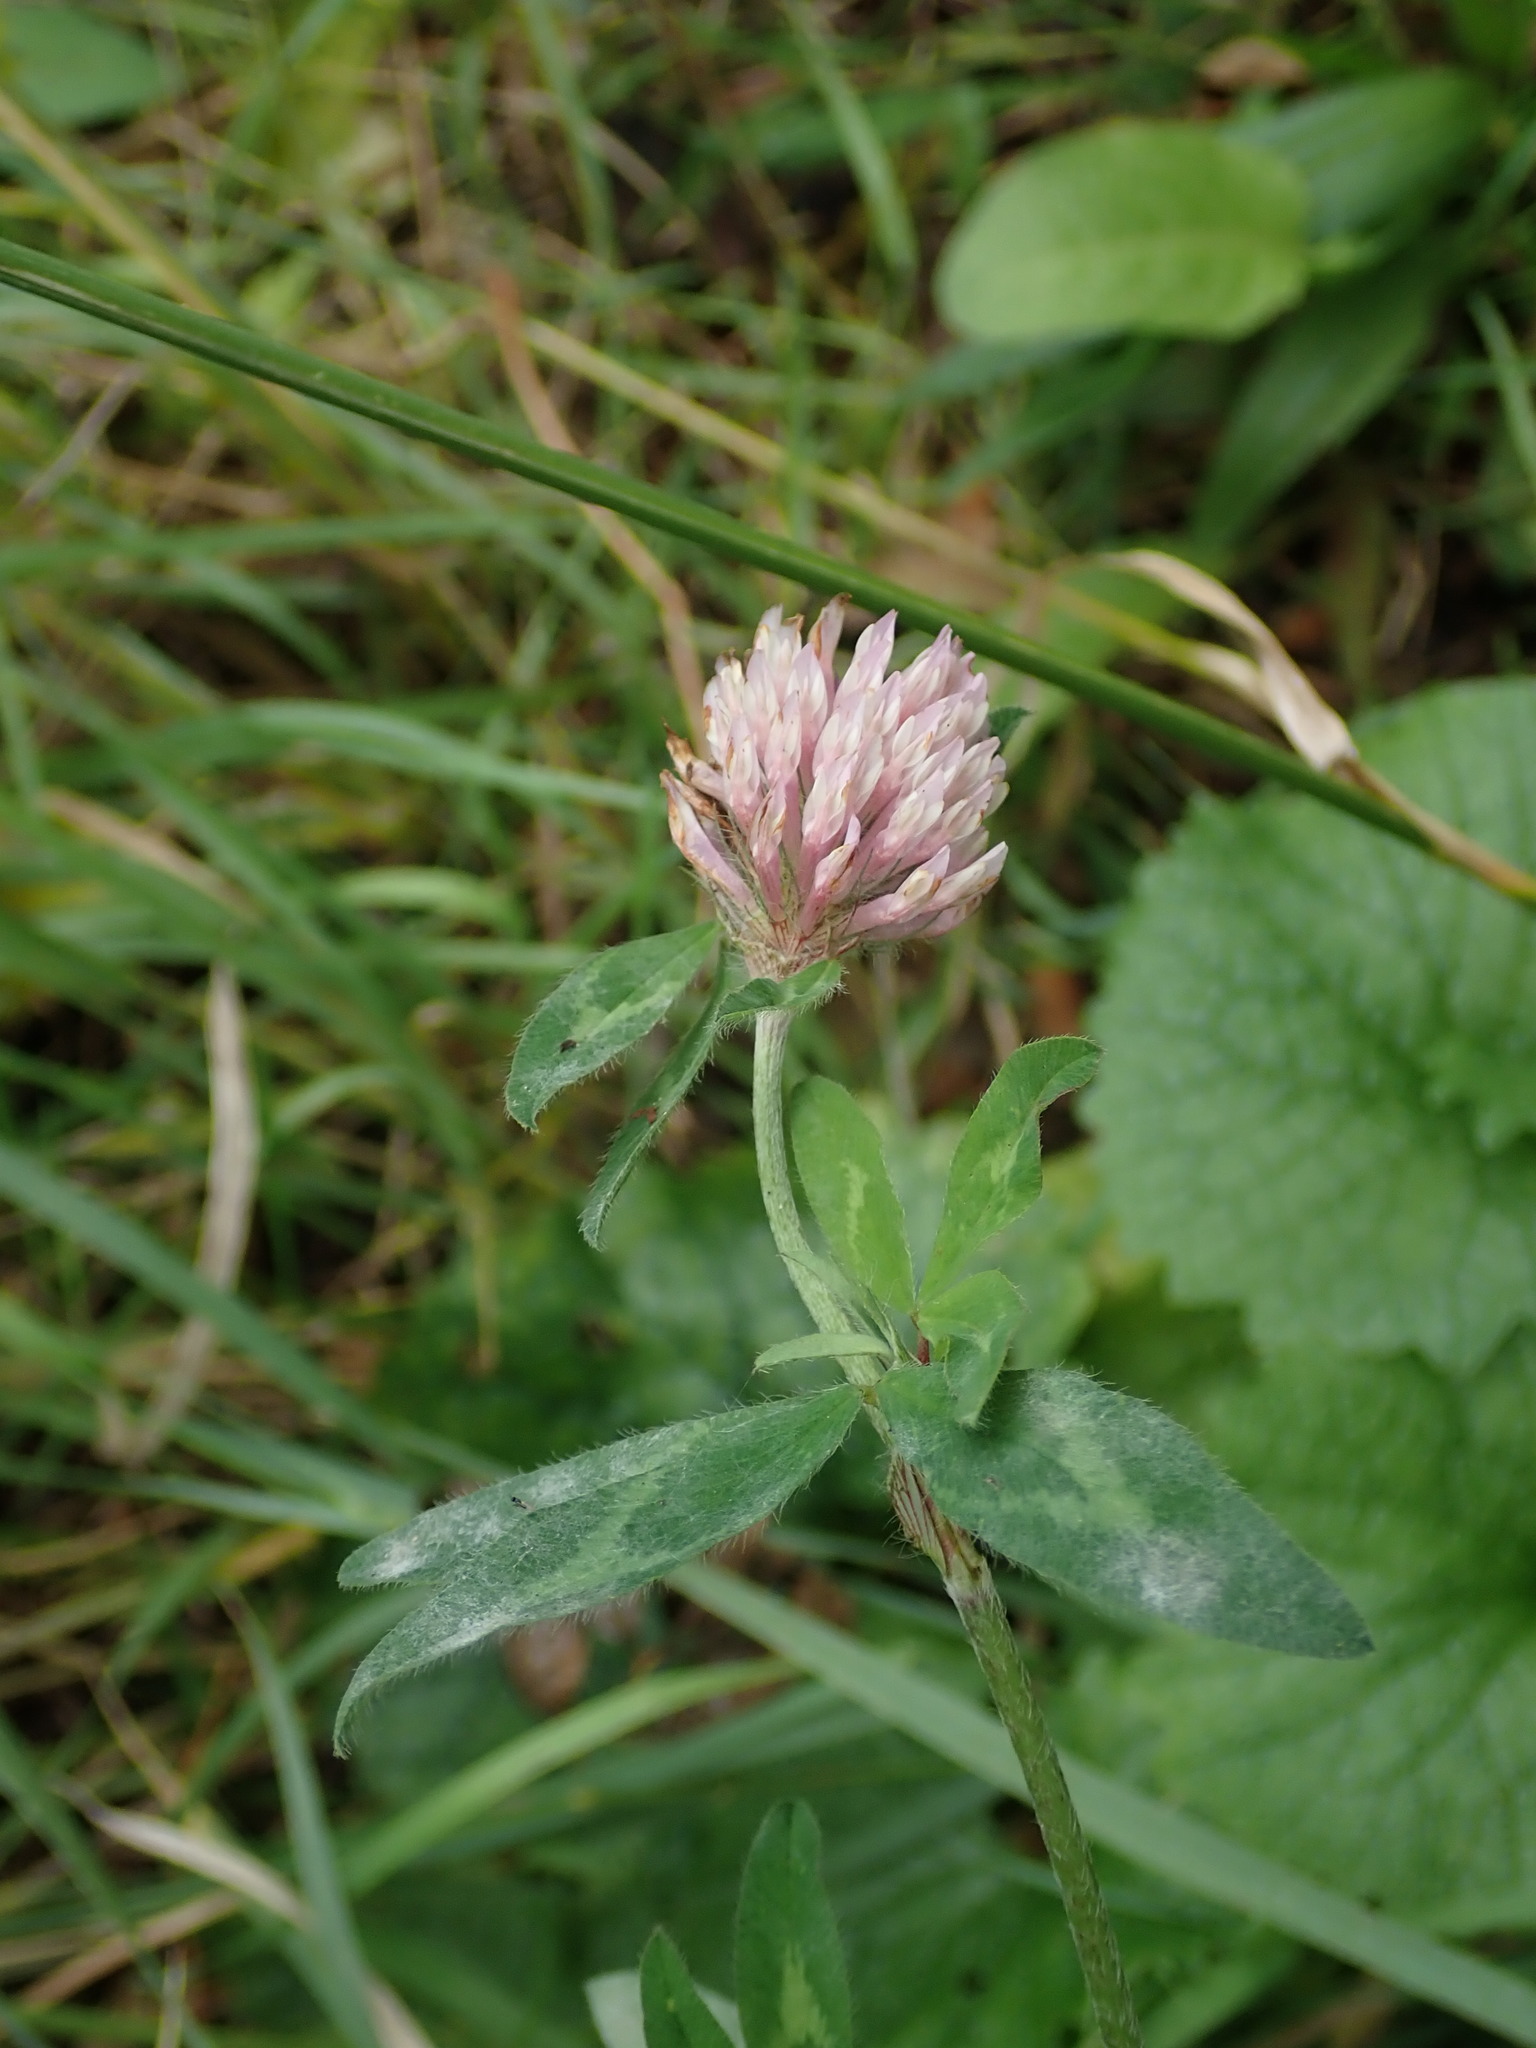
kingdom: Plantae
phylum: Tracheophyta
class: Magnoliopsida
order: Fabales
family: Fabaceae
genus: Trifolium
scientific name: Trifolium pratense
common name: Red clover
